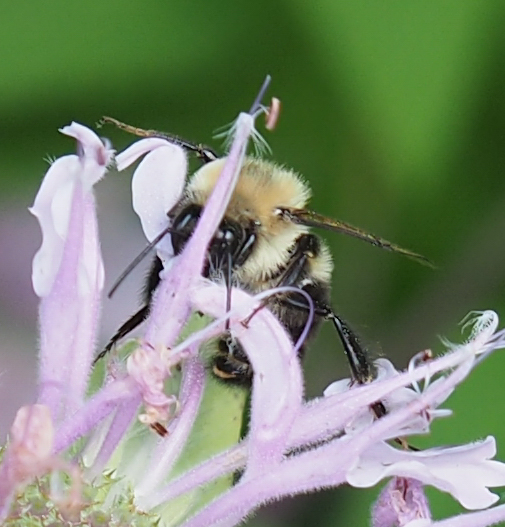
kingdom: Animalia
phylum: Arthropoda
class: Insecta
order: Hymenoptera
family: Apidae
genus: Bombus
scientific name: Bombus impatiens
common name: Common eastern bumble bee
